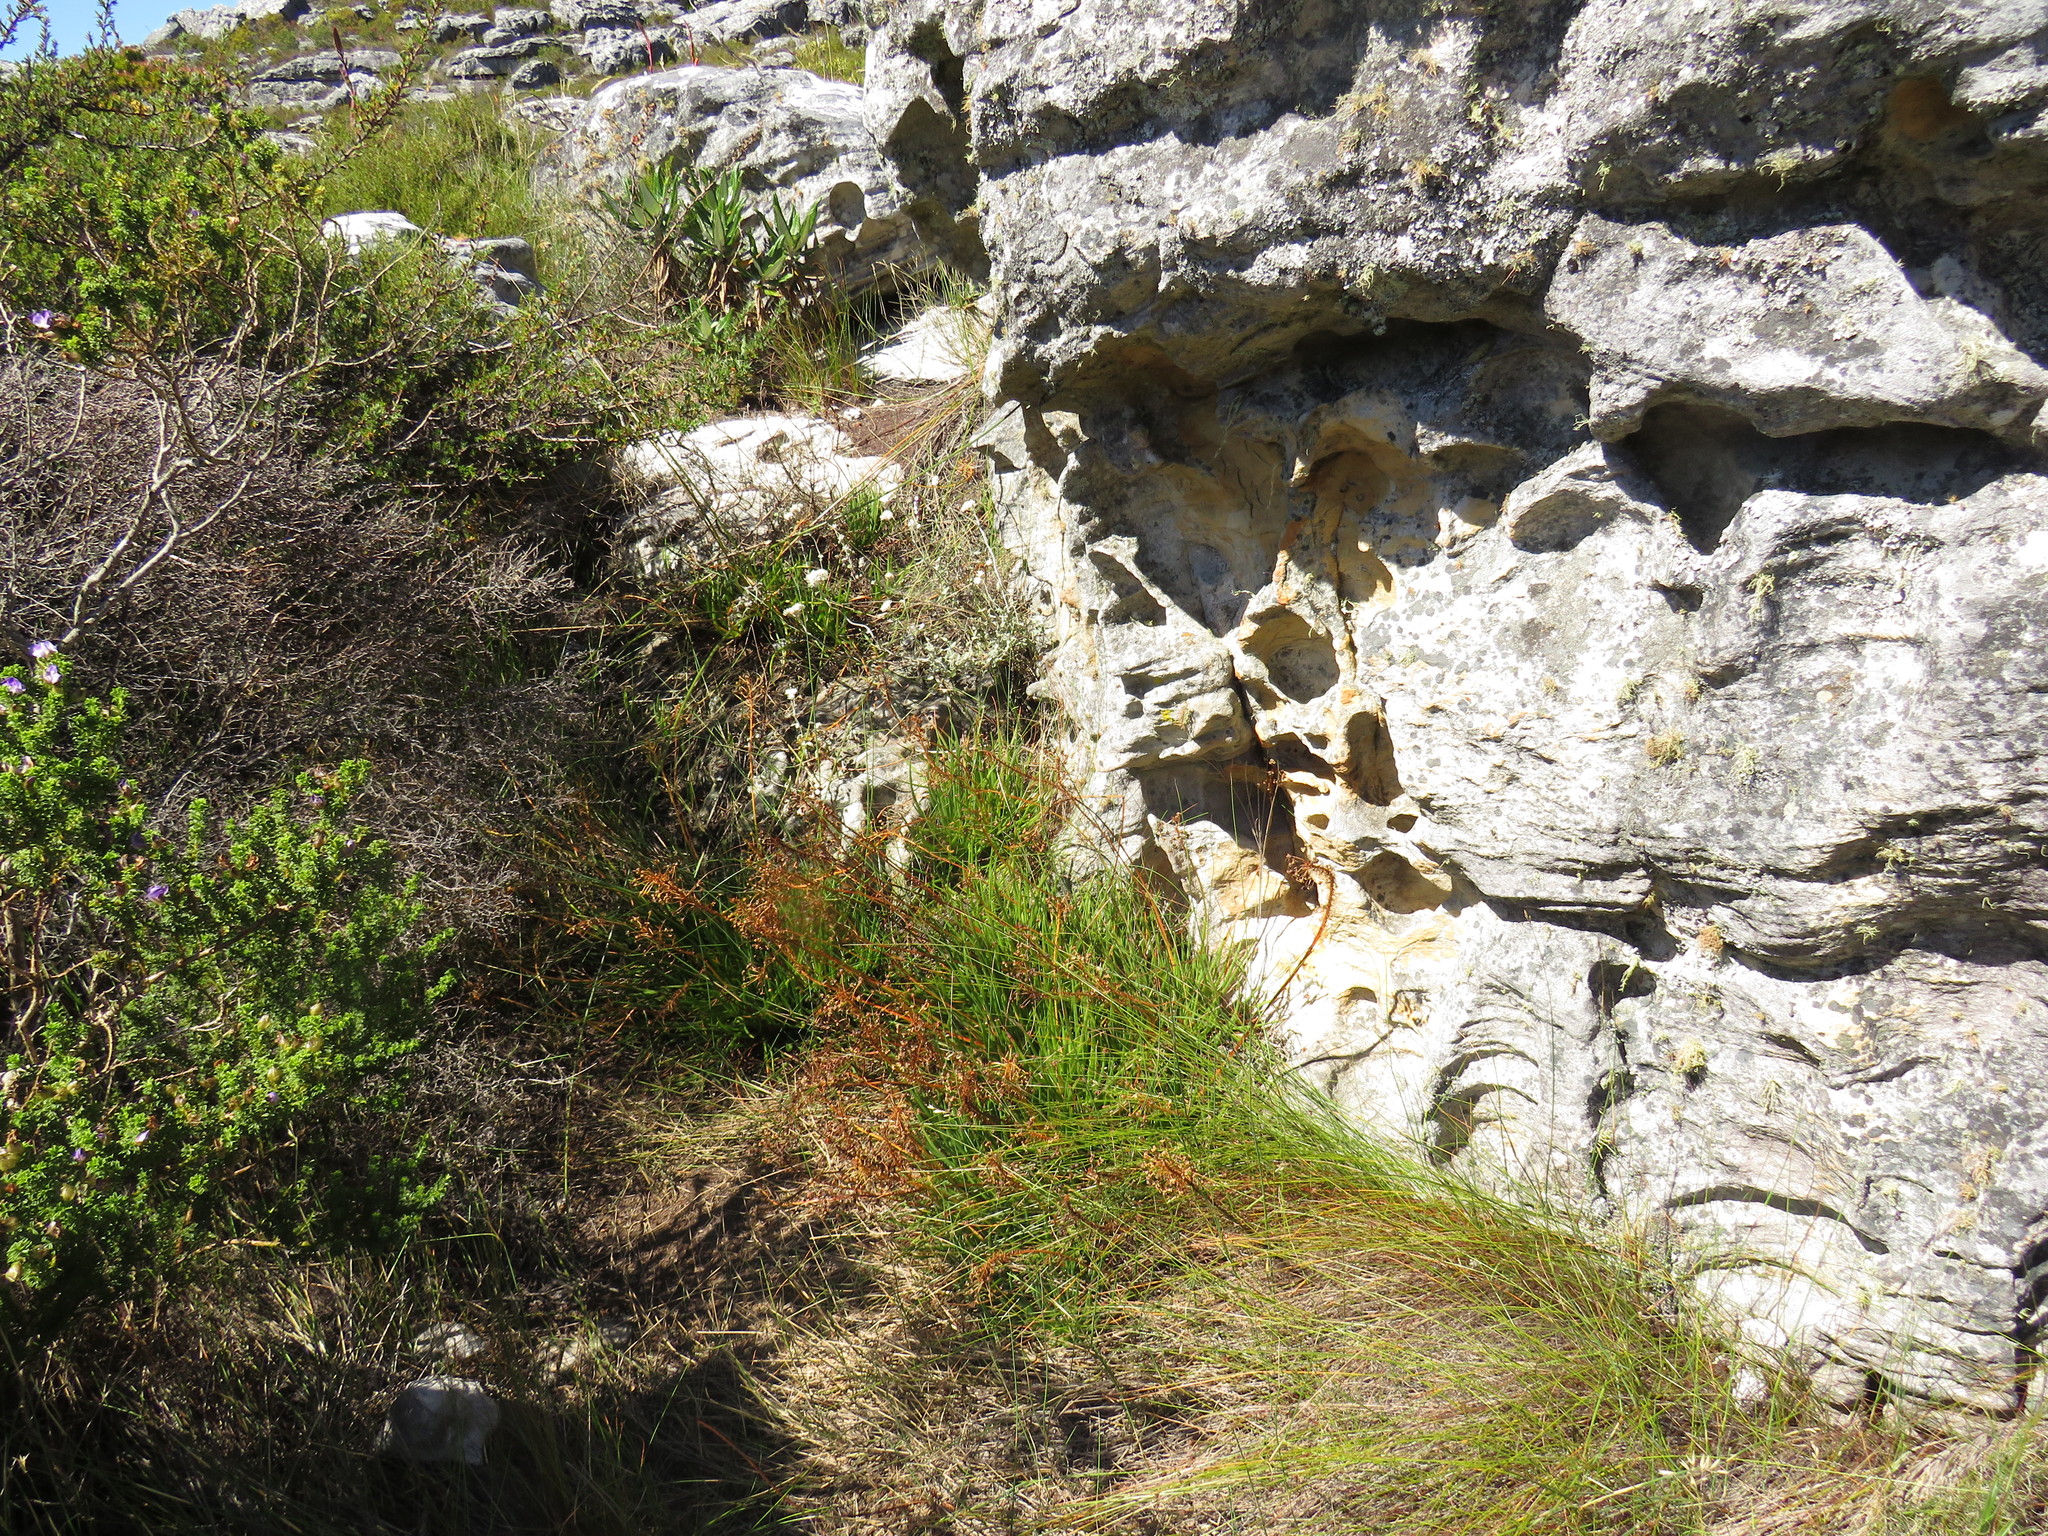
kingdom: Plantae
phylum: Tracheophyta
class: Liliopsida
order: Asparagales
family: Asphodelaceae
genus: Bulbine
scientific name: Bulbine lagopus
